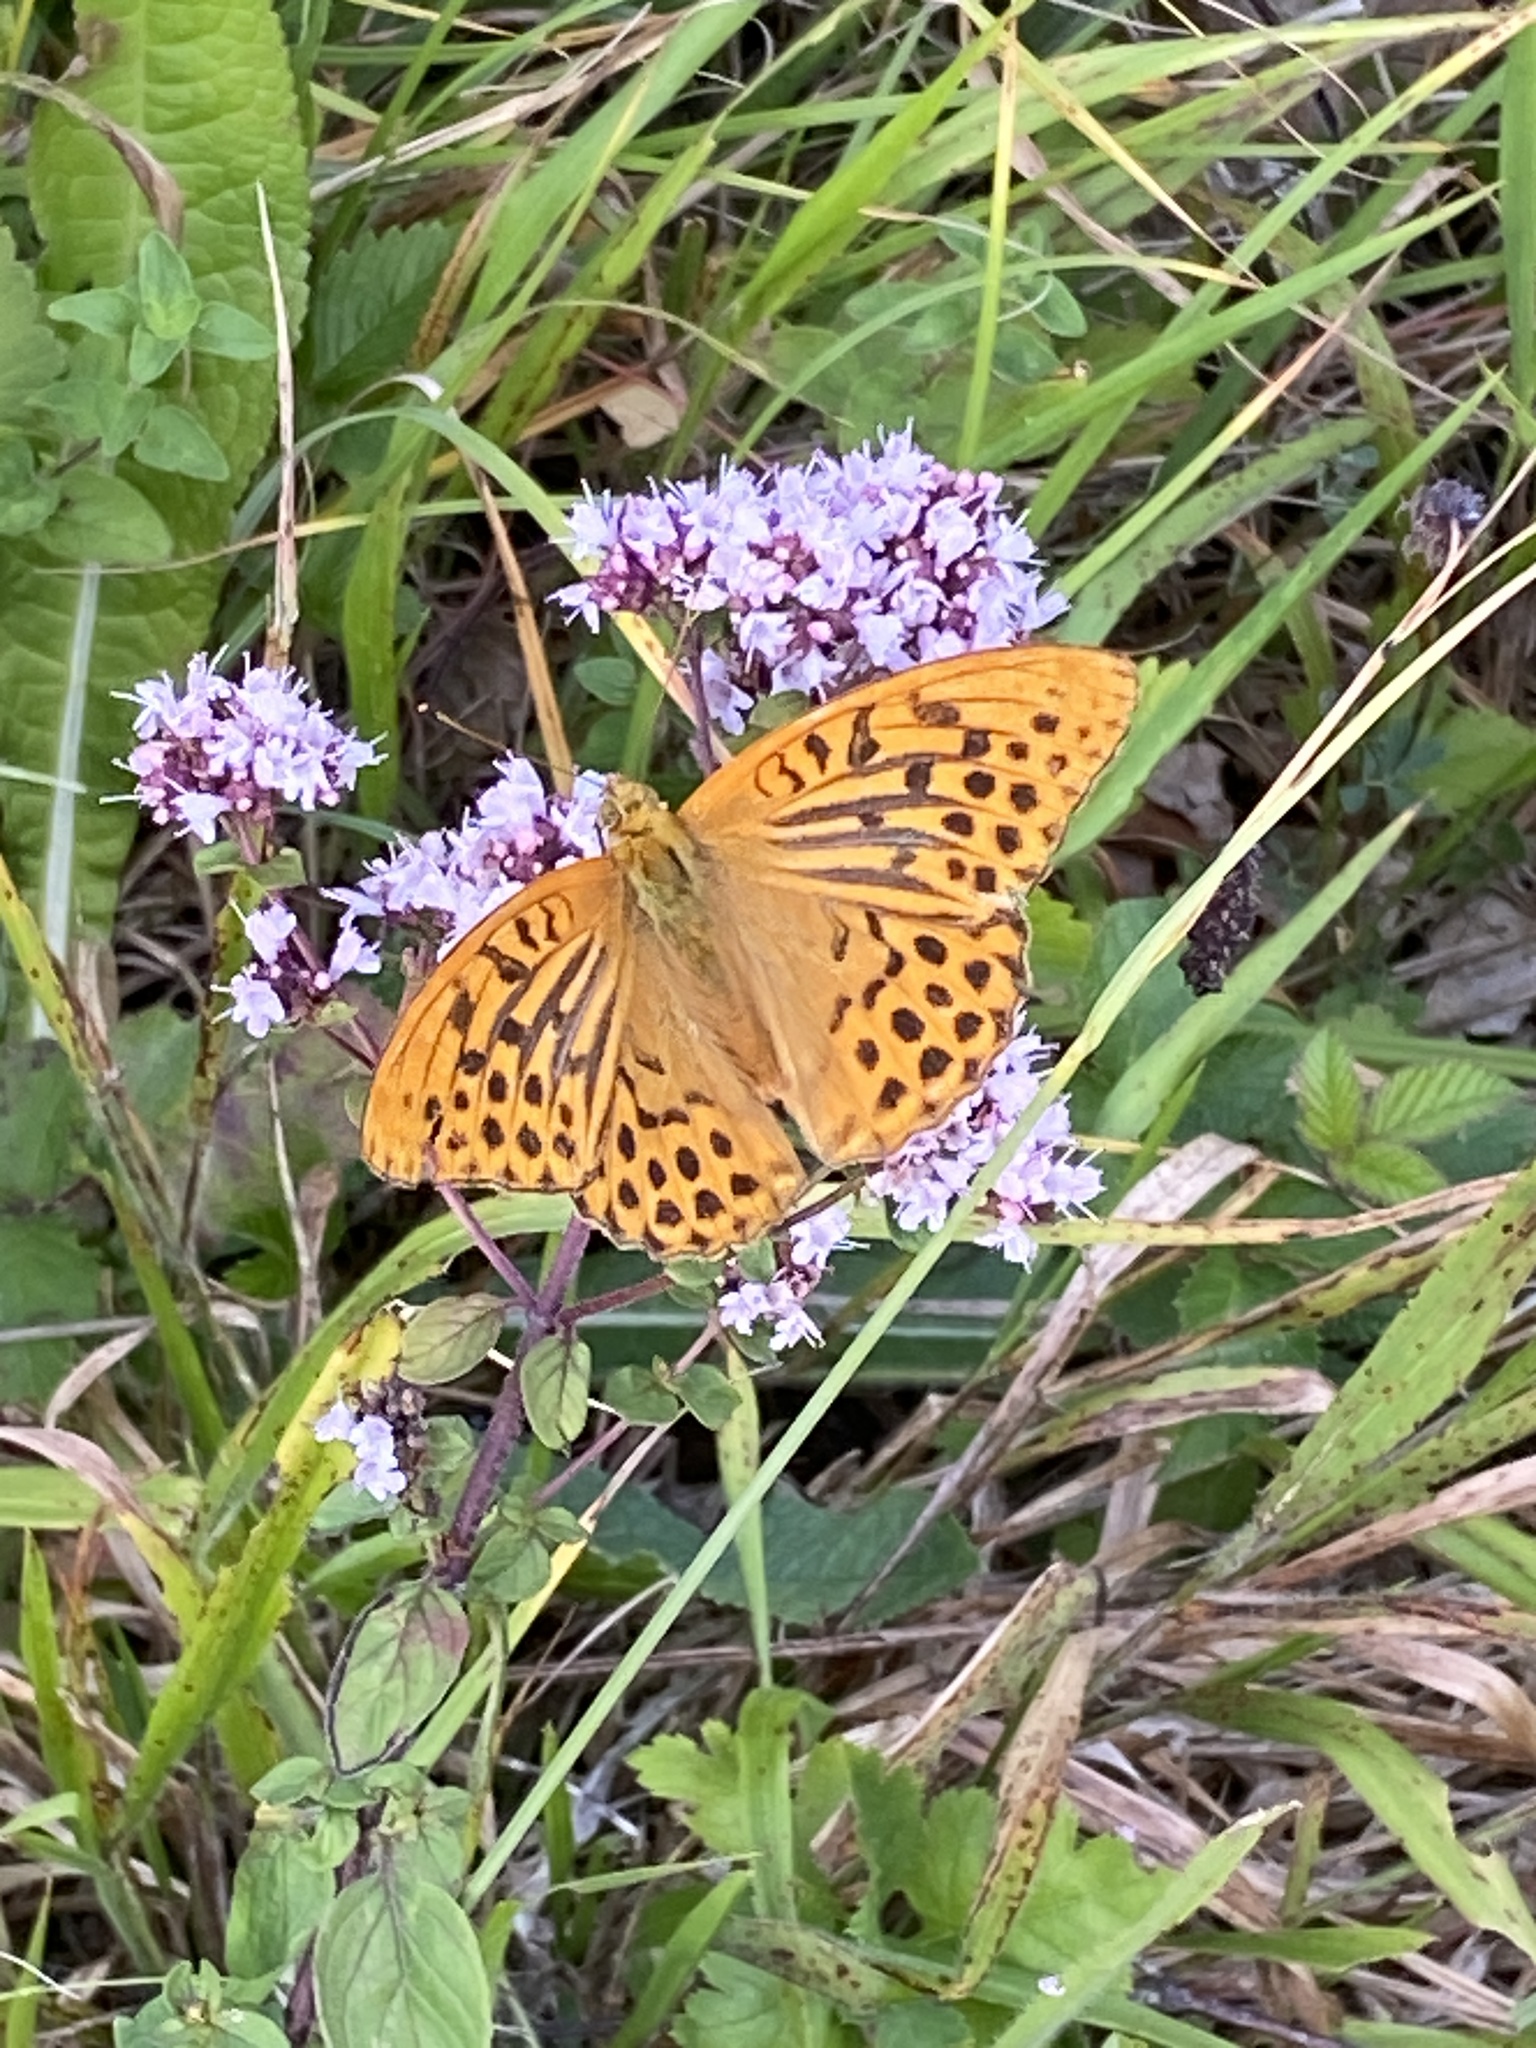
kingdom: Animalia
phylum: Arthropoda
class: Insecta
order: Lepidoptera
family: Nymphalidae
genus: Argynnis
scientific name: Argynnis paphia
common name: Silver-washed fritillary
